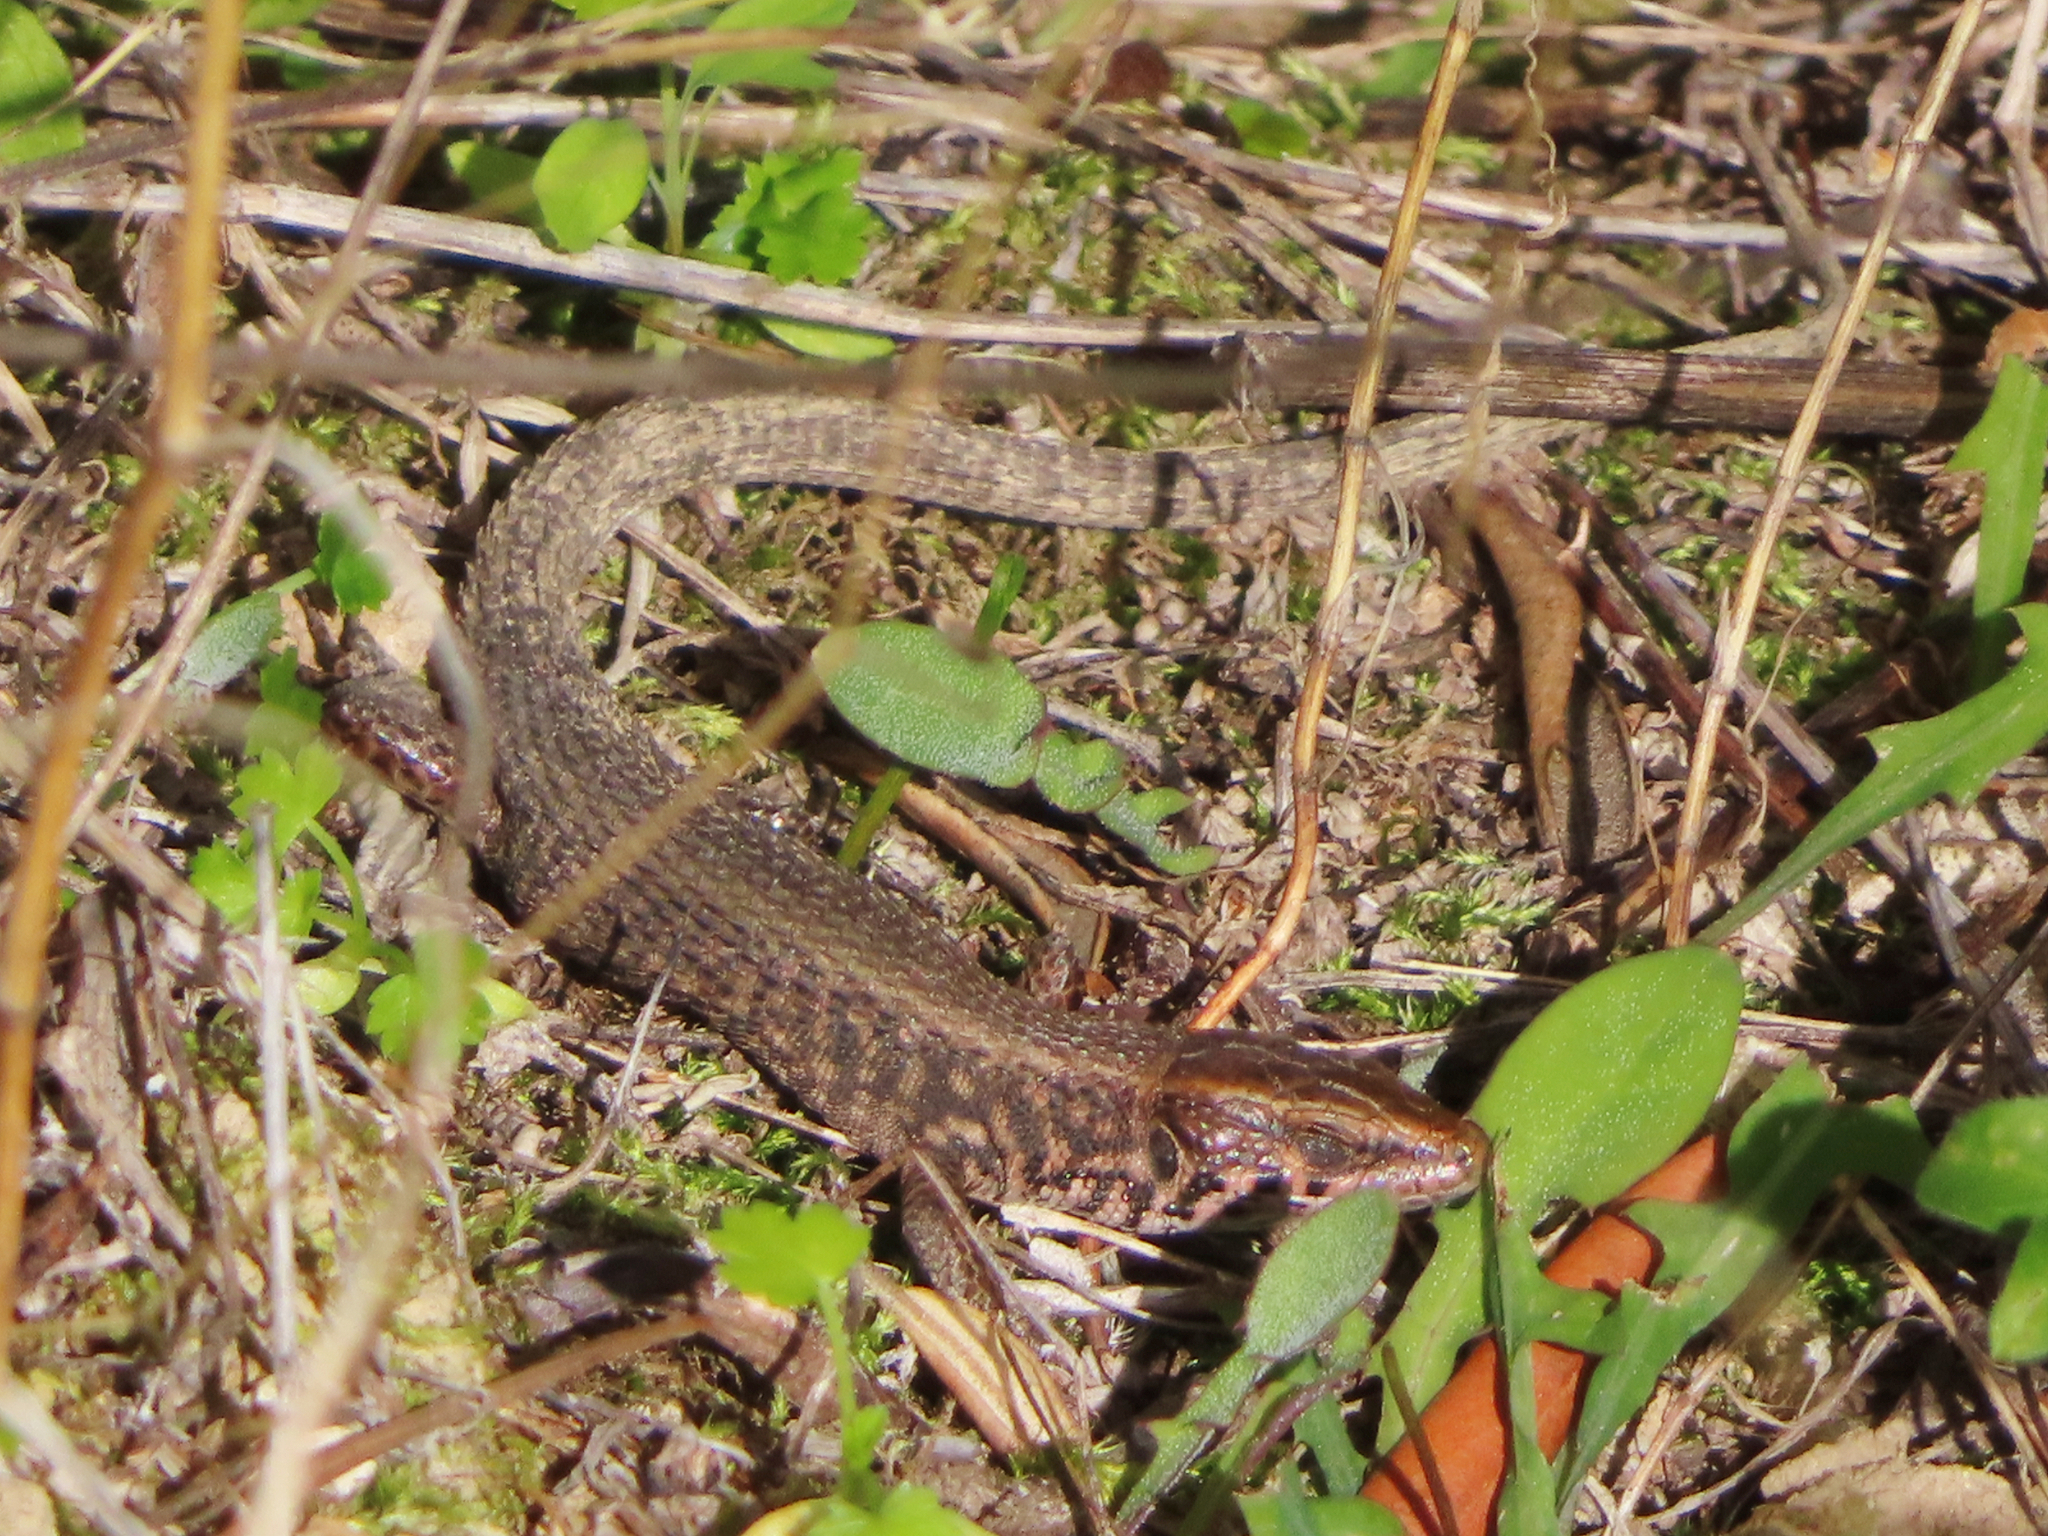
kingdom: Animalia
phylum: Chordata
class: Squamata
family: Lacertidae
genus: Algyroides
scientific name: Algyroides moreoticus
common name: Greek algyroides
